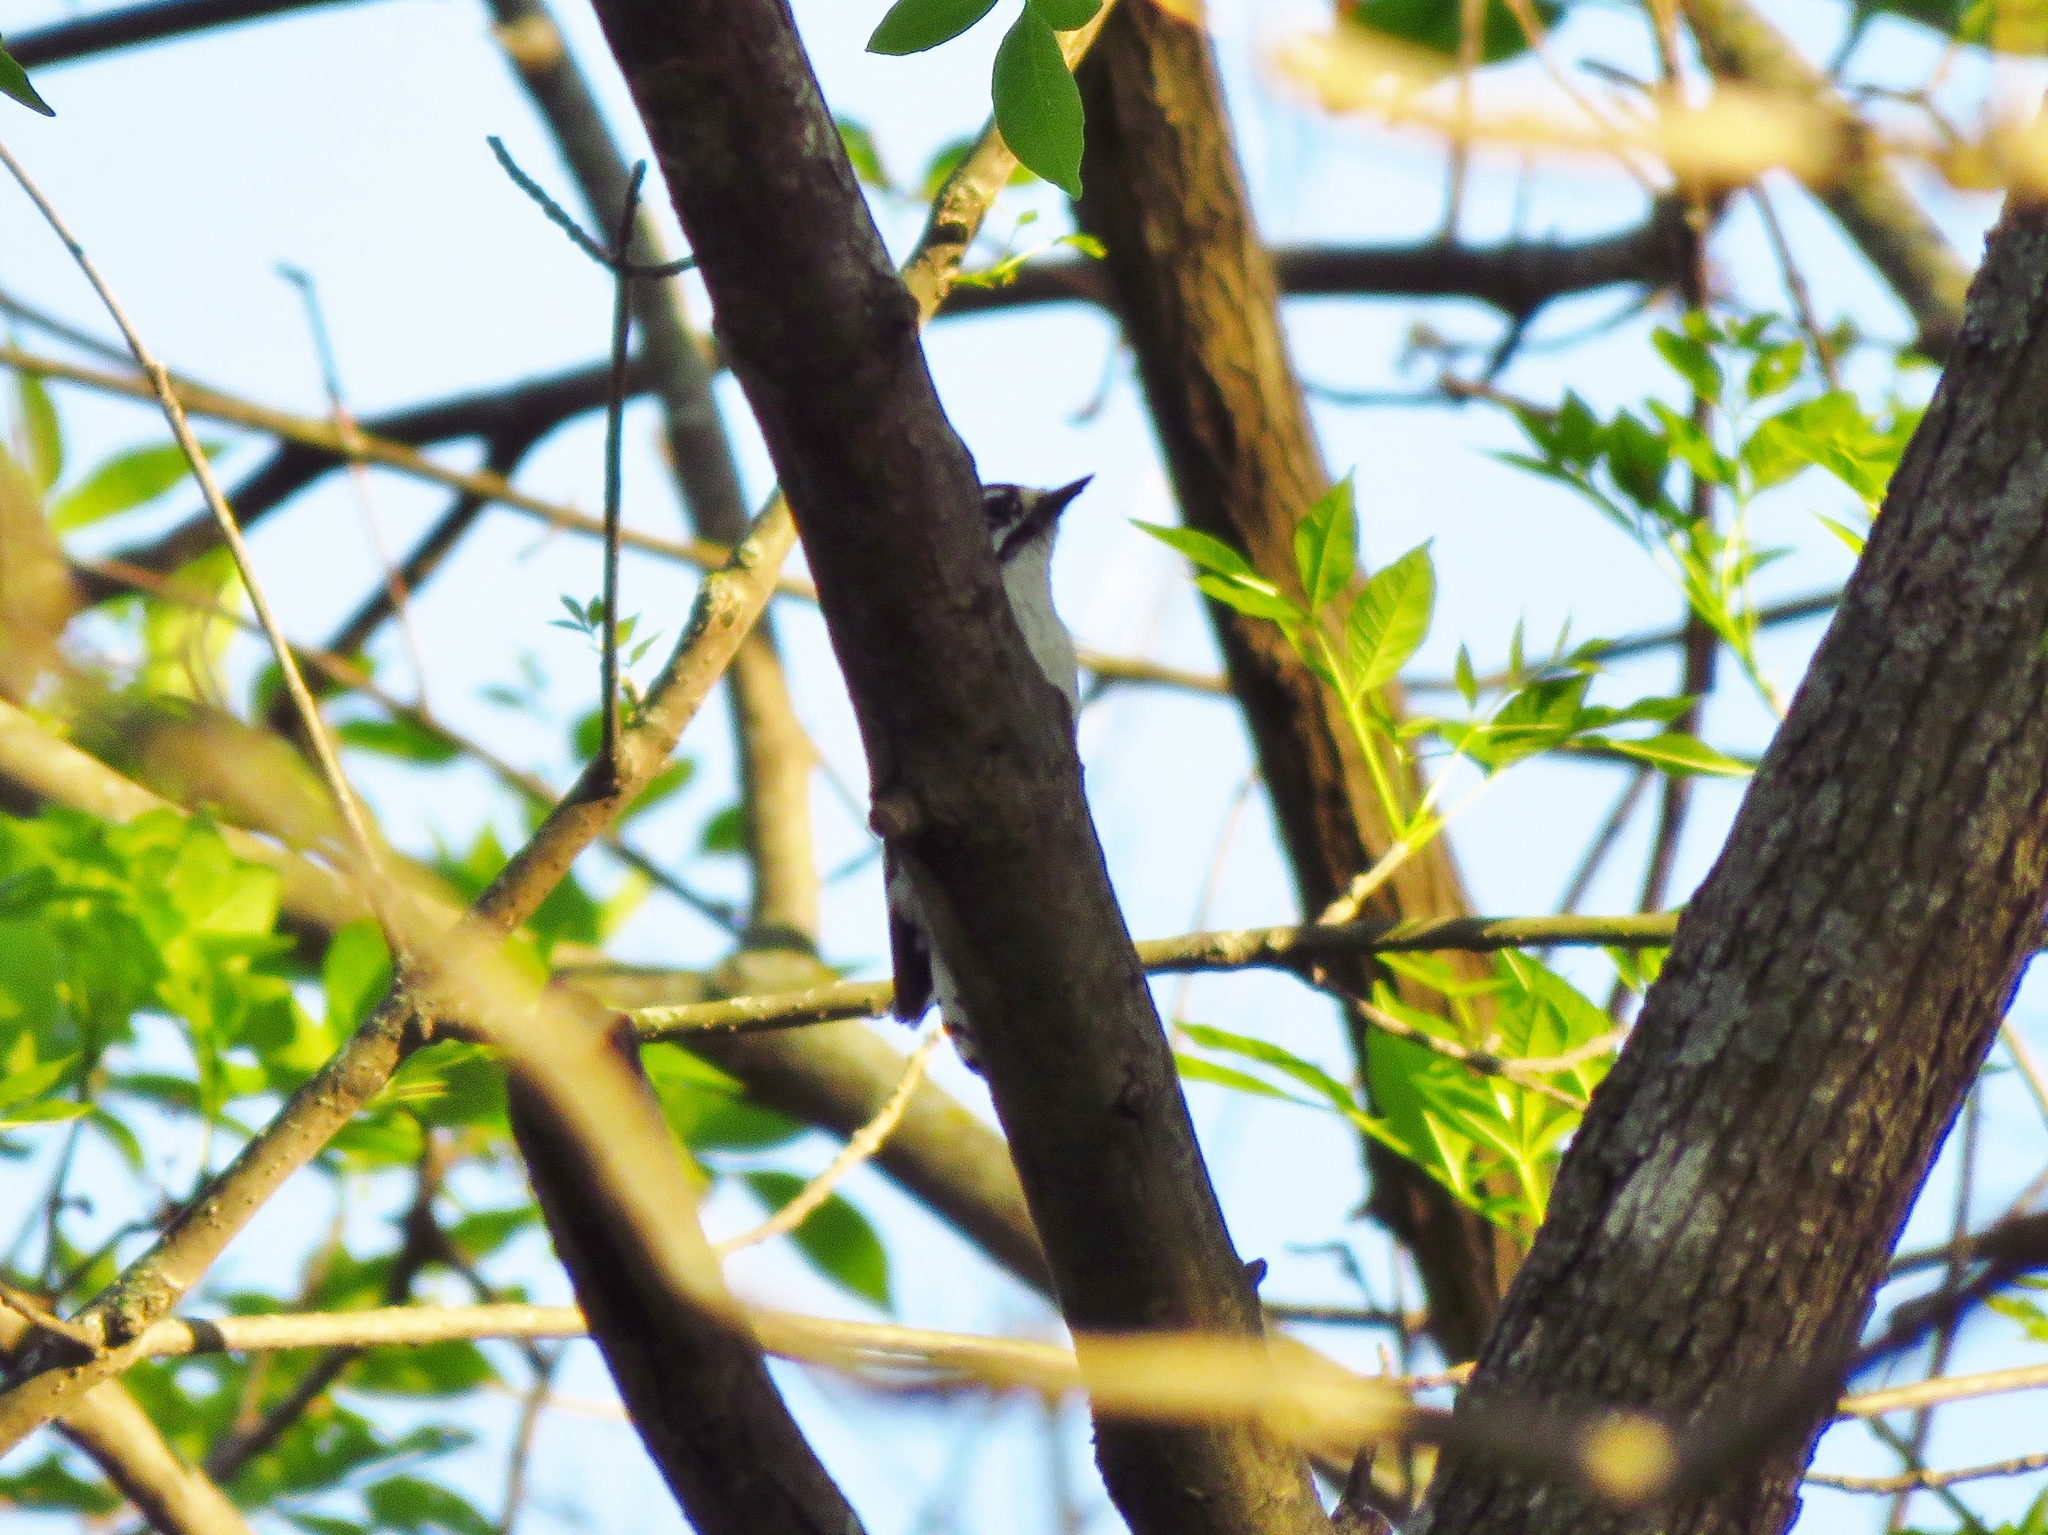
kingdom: Animalia
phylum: Chordata
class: Aves
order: Piciformes
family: Picidae
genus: Dryobates
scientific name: Dryobates pubescens
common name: Downy woodpecker
